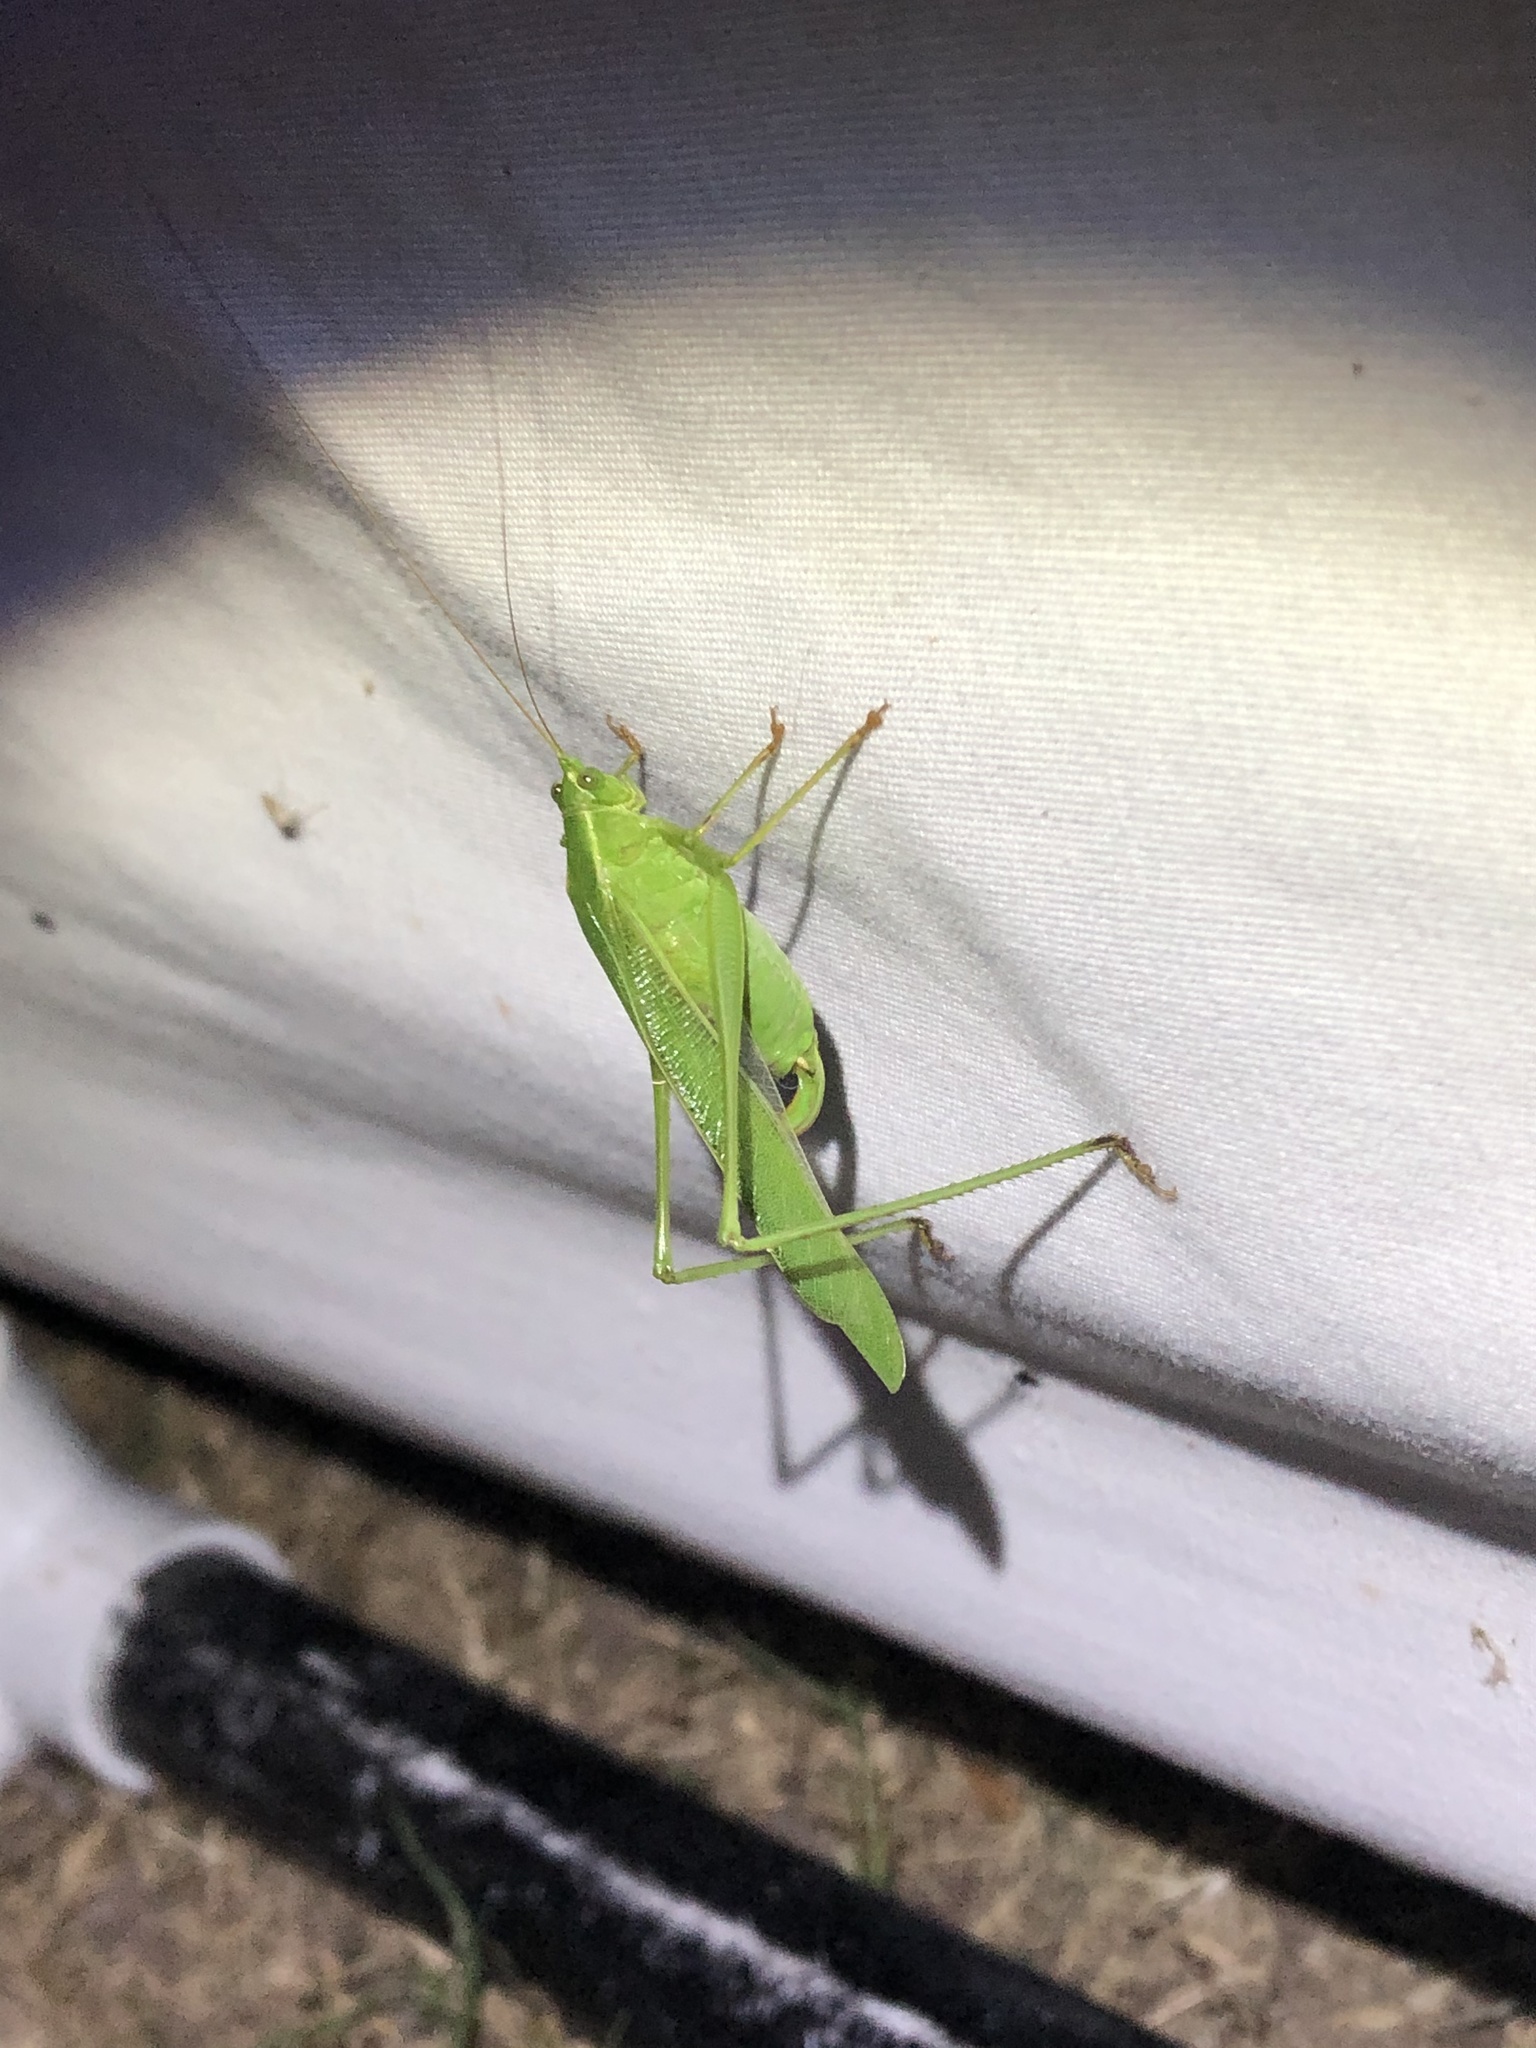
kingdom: Animalia
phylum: Arthropoda
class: Insecta
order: Orthoptera
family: Tettigoniidae
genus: Scudderia
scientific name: Scudderia curvicauda
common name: Curve-tailed bush katydid
